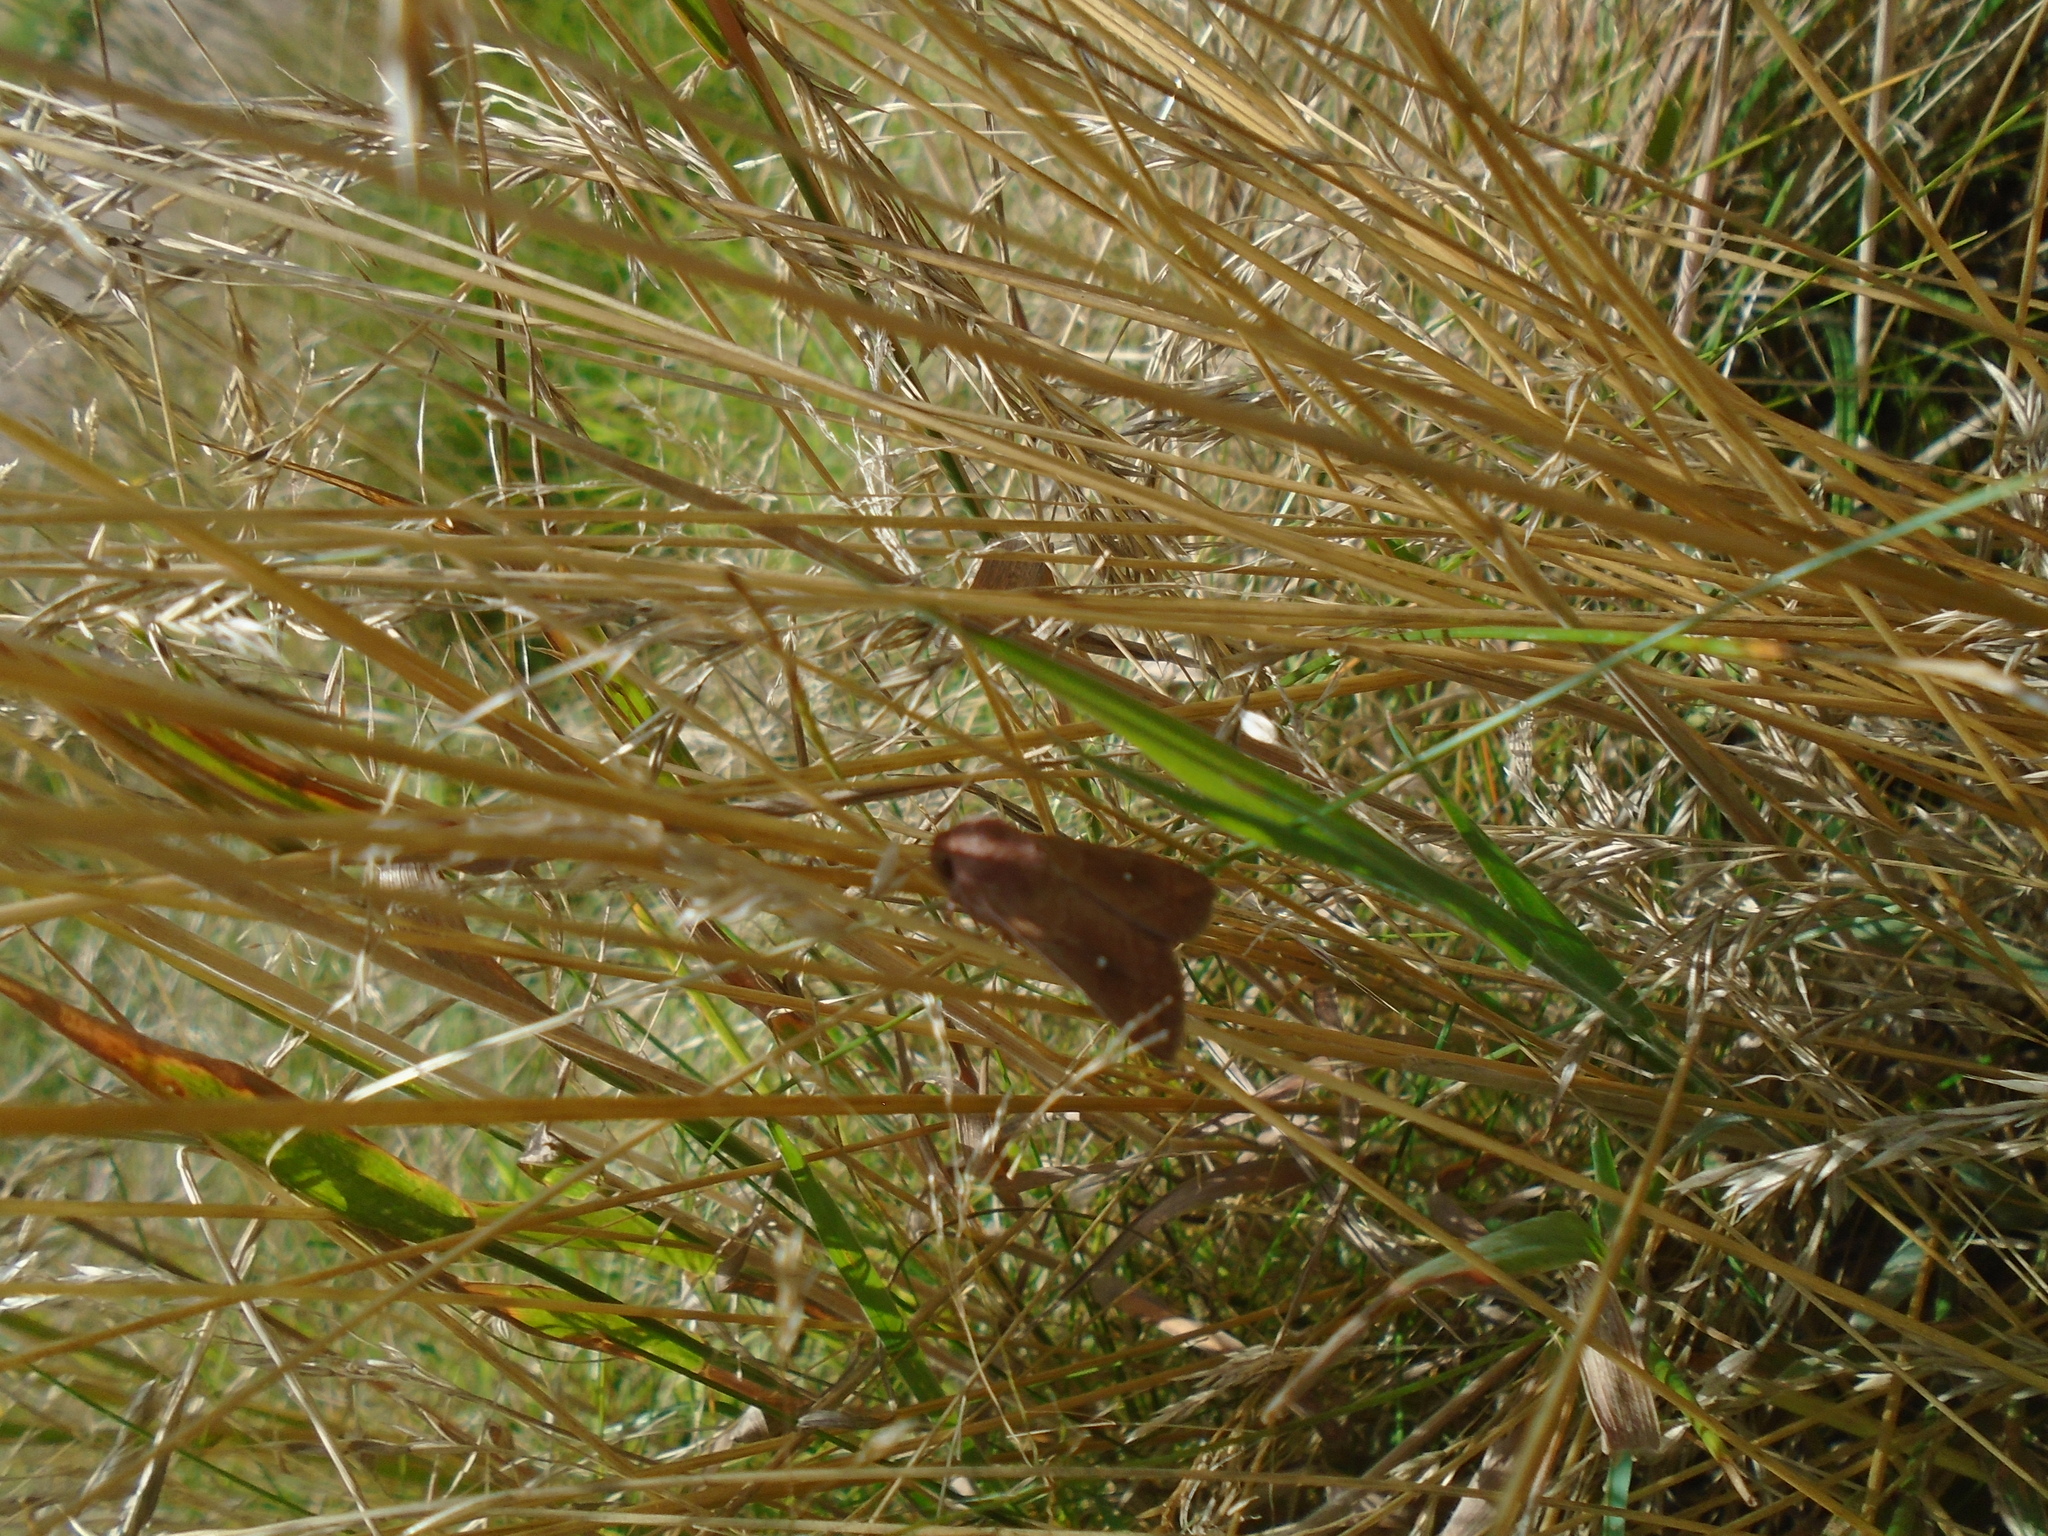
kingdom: Animalia
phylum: Arthropoda
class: Insecta
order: Lepidoptera
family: Noctuidae
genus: Mythimna
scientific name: Mythimna albipuncta
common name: White-point
